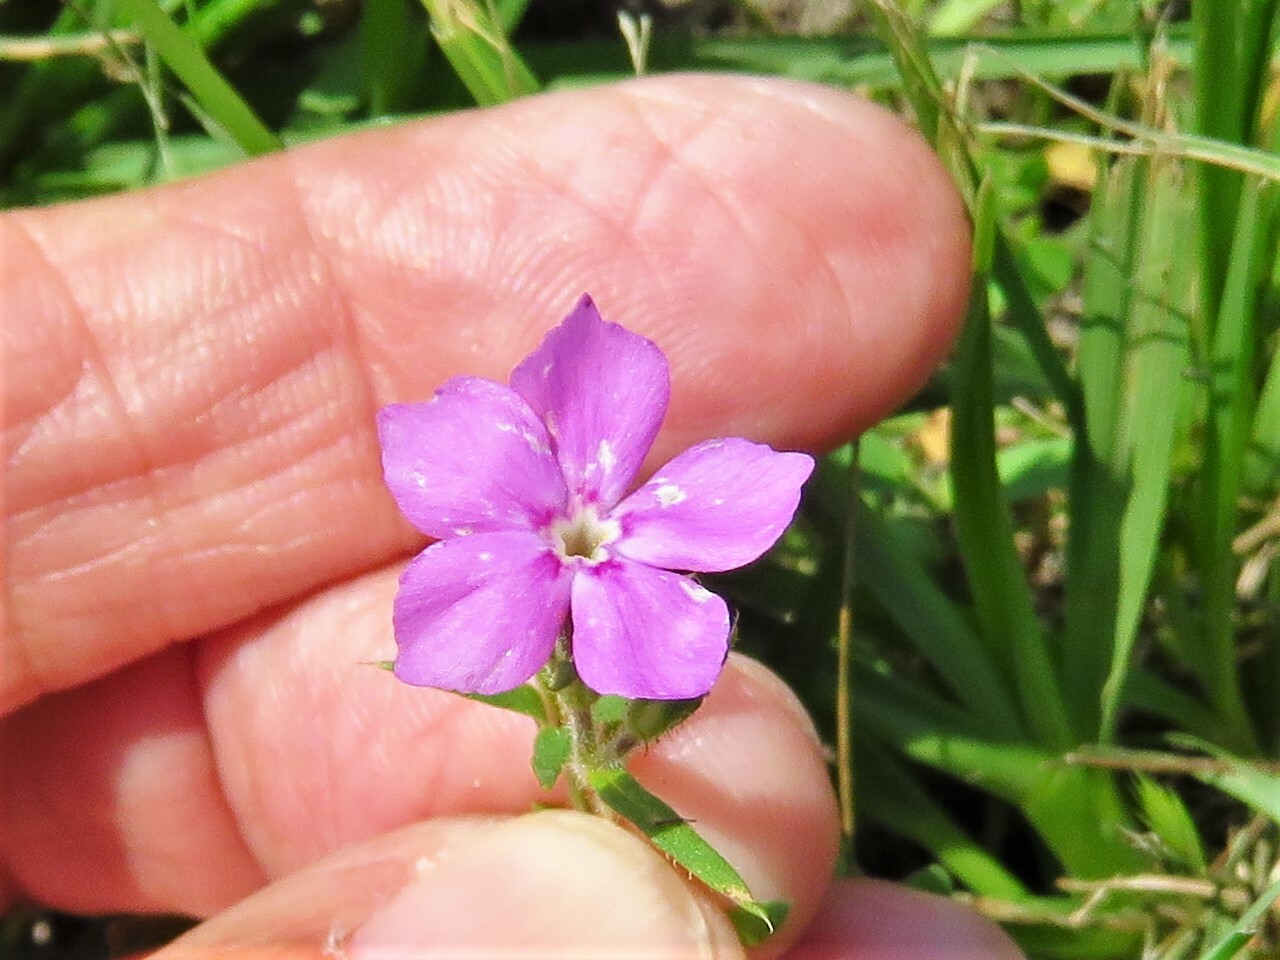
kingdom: Plantae
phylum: Tracheophyta
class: Magnoliopsida
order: Ericales
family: Polemoniaceae
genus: Phlox
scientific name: Phlox cuspidata
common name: Pointed phlox
